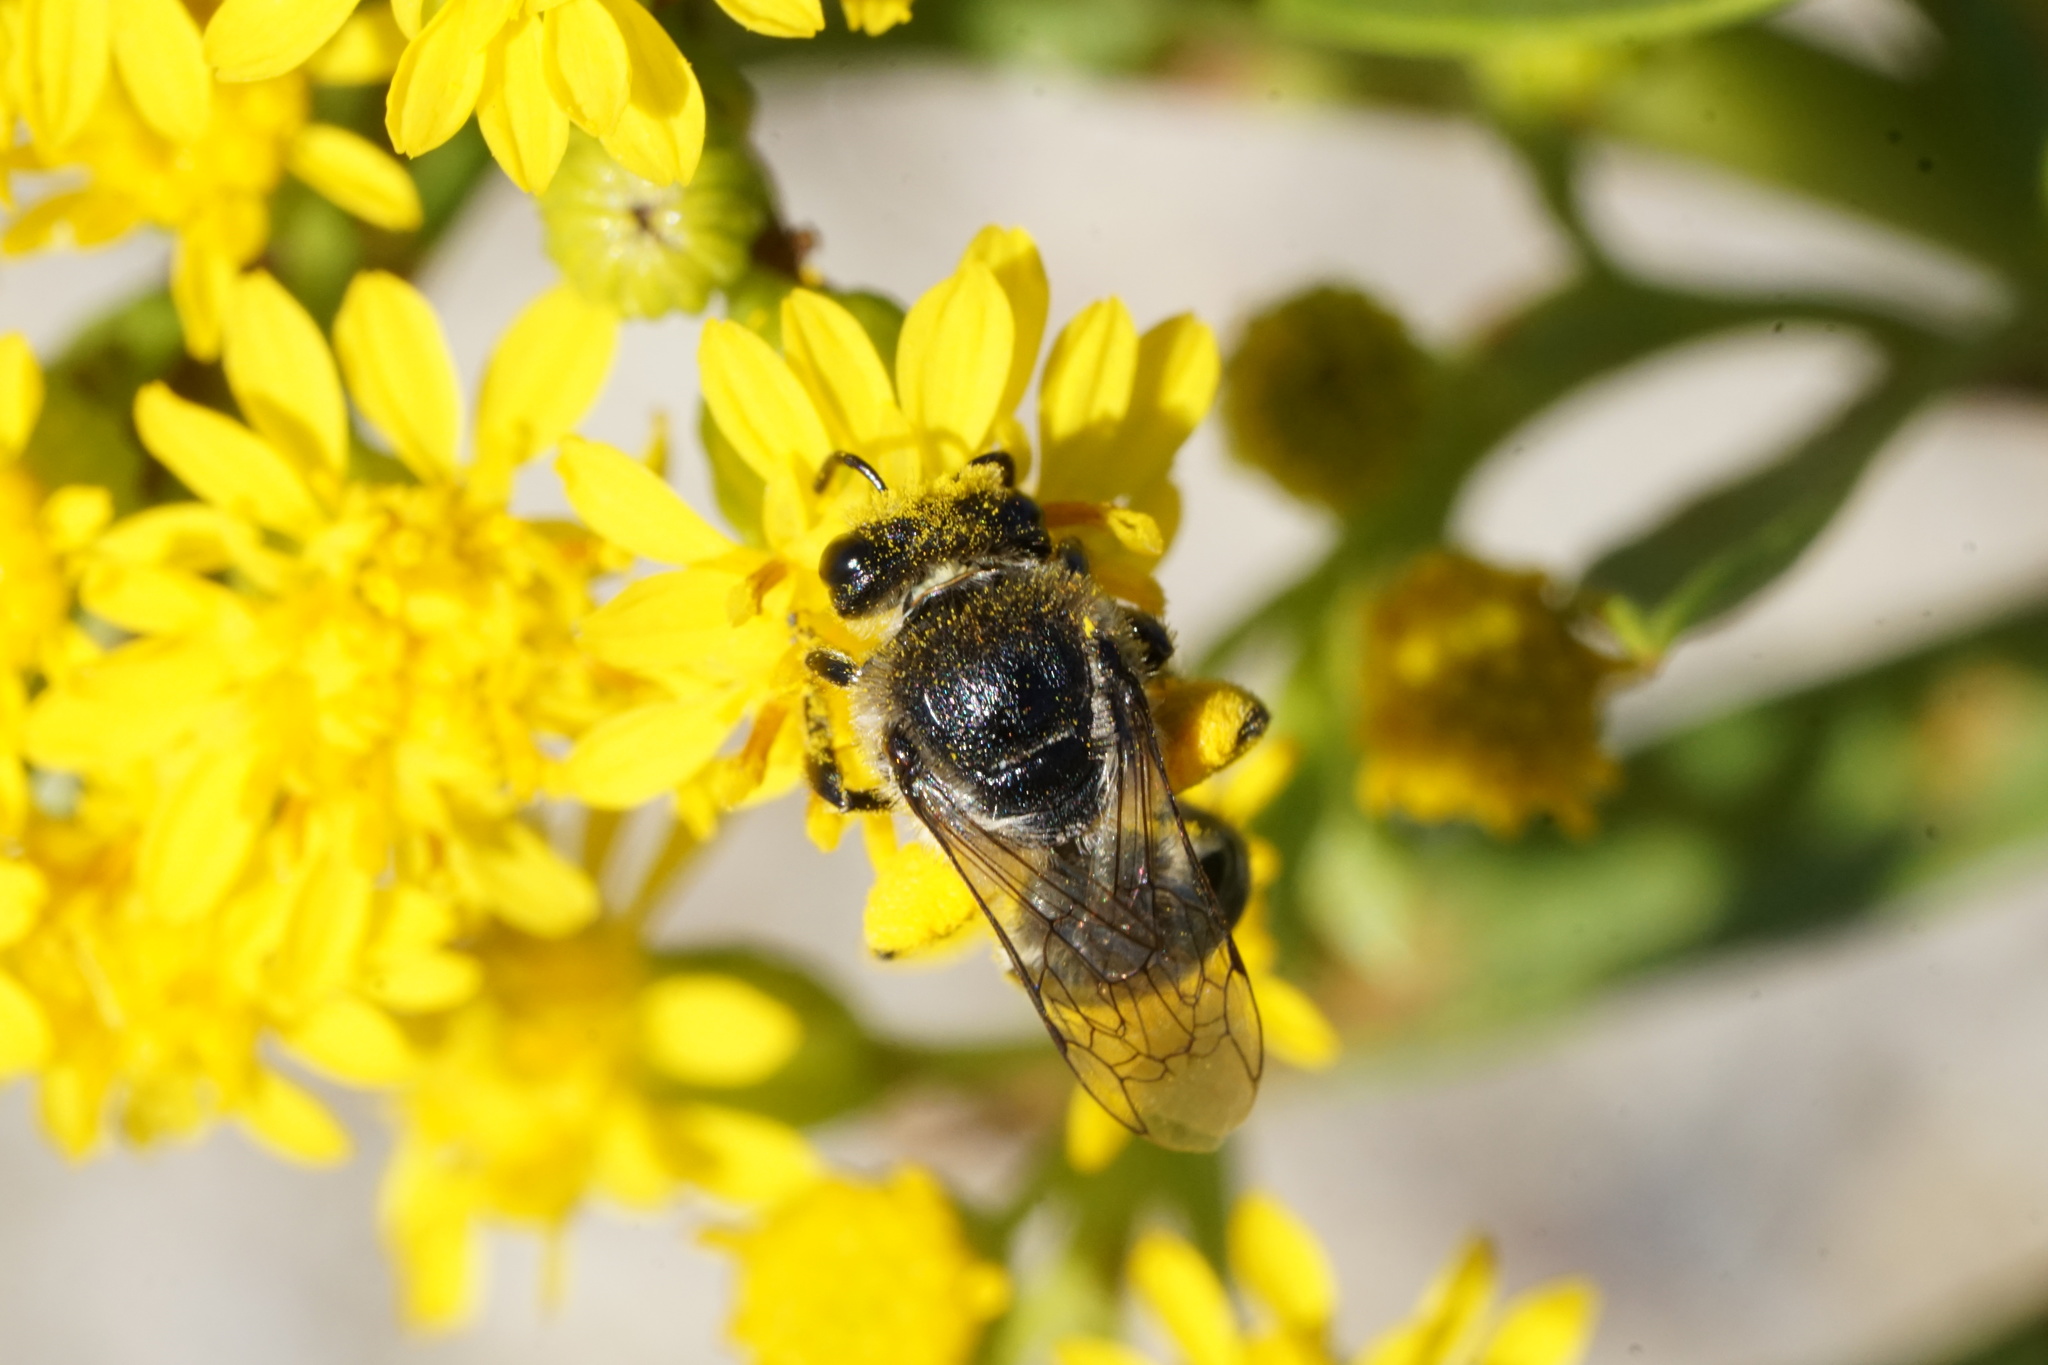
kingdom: Animalia
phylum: Arthropoda
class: Insecta
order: Hymenoptera
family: Colletidae
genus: Colletes
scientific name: Colletes simulans
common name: Spine-shouldered cellophane bee
